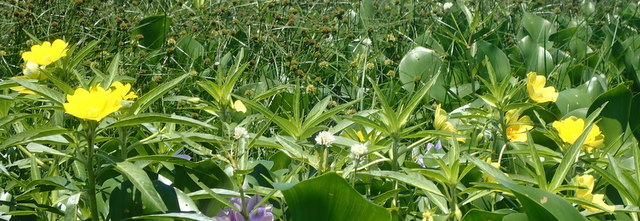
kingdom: Plantae
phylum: Tracheophyta
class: Magnoliopsida
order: Myrtales
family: Onagraceae
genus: Ludwigia
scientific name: Ludwigia grandiflora
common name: Water primrose
